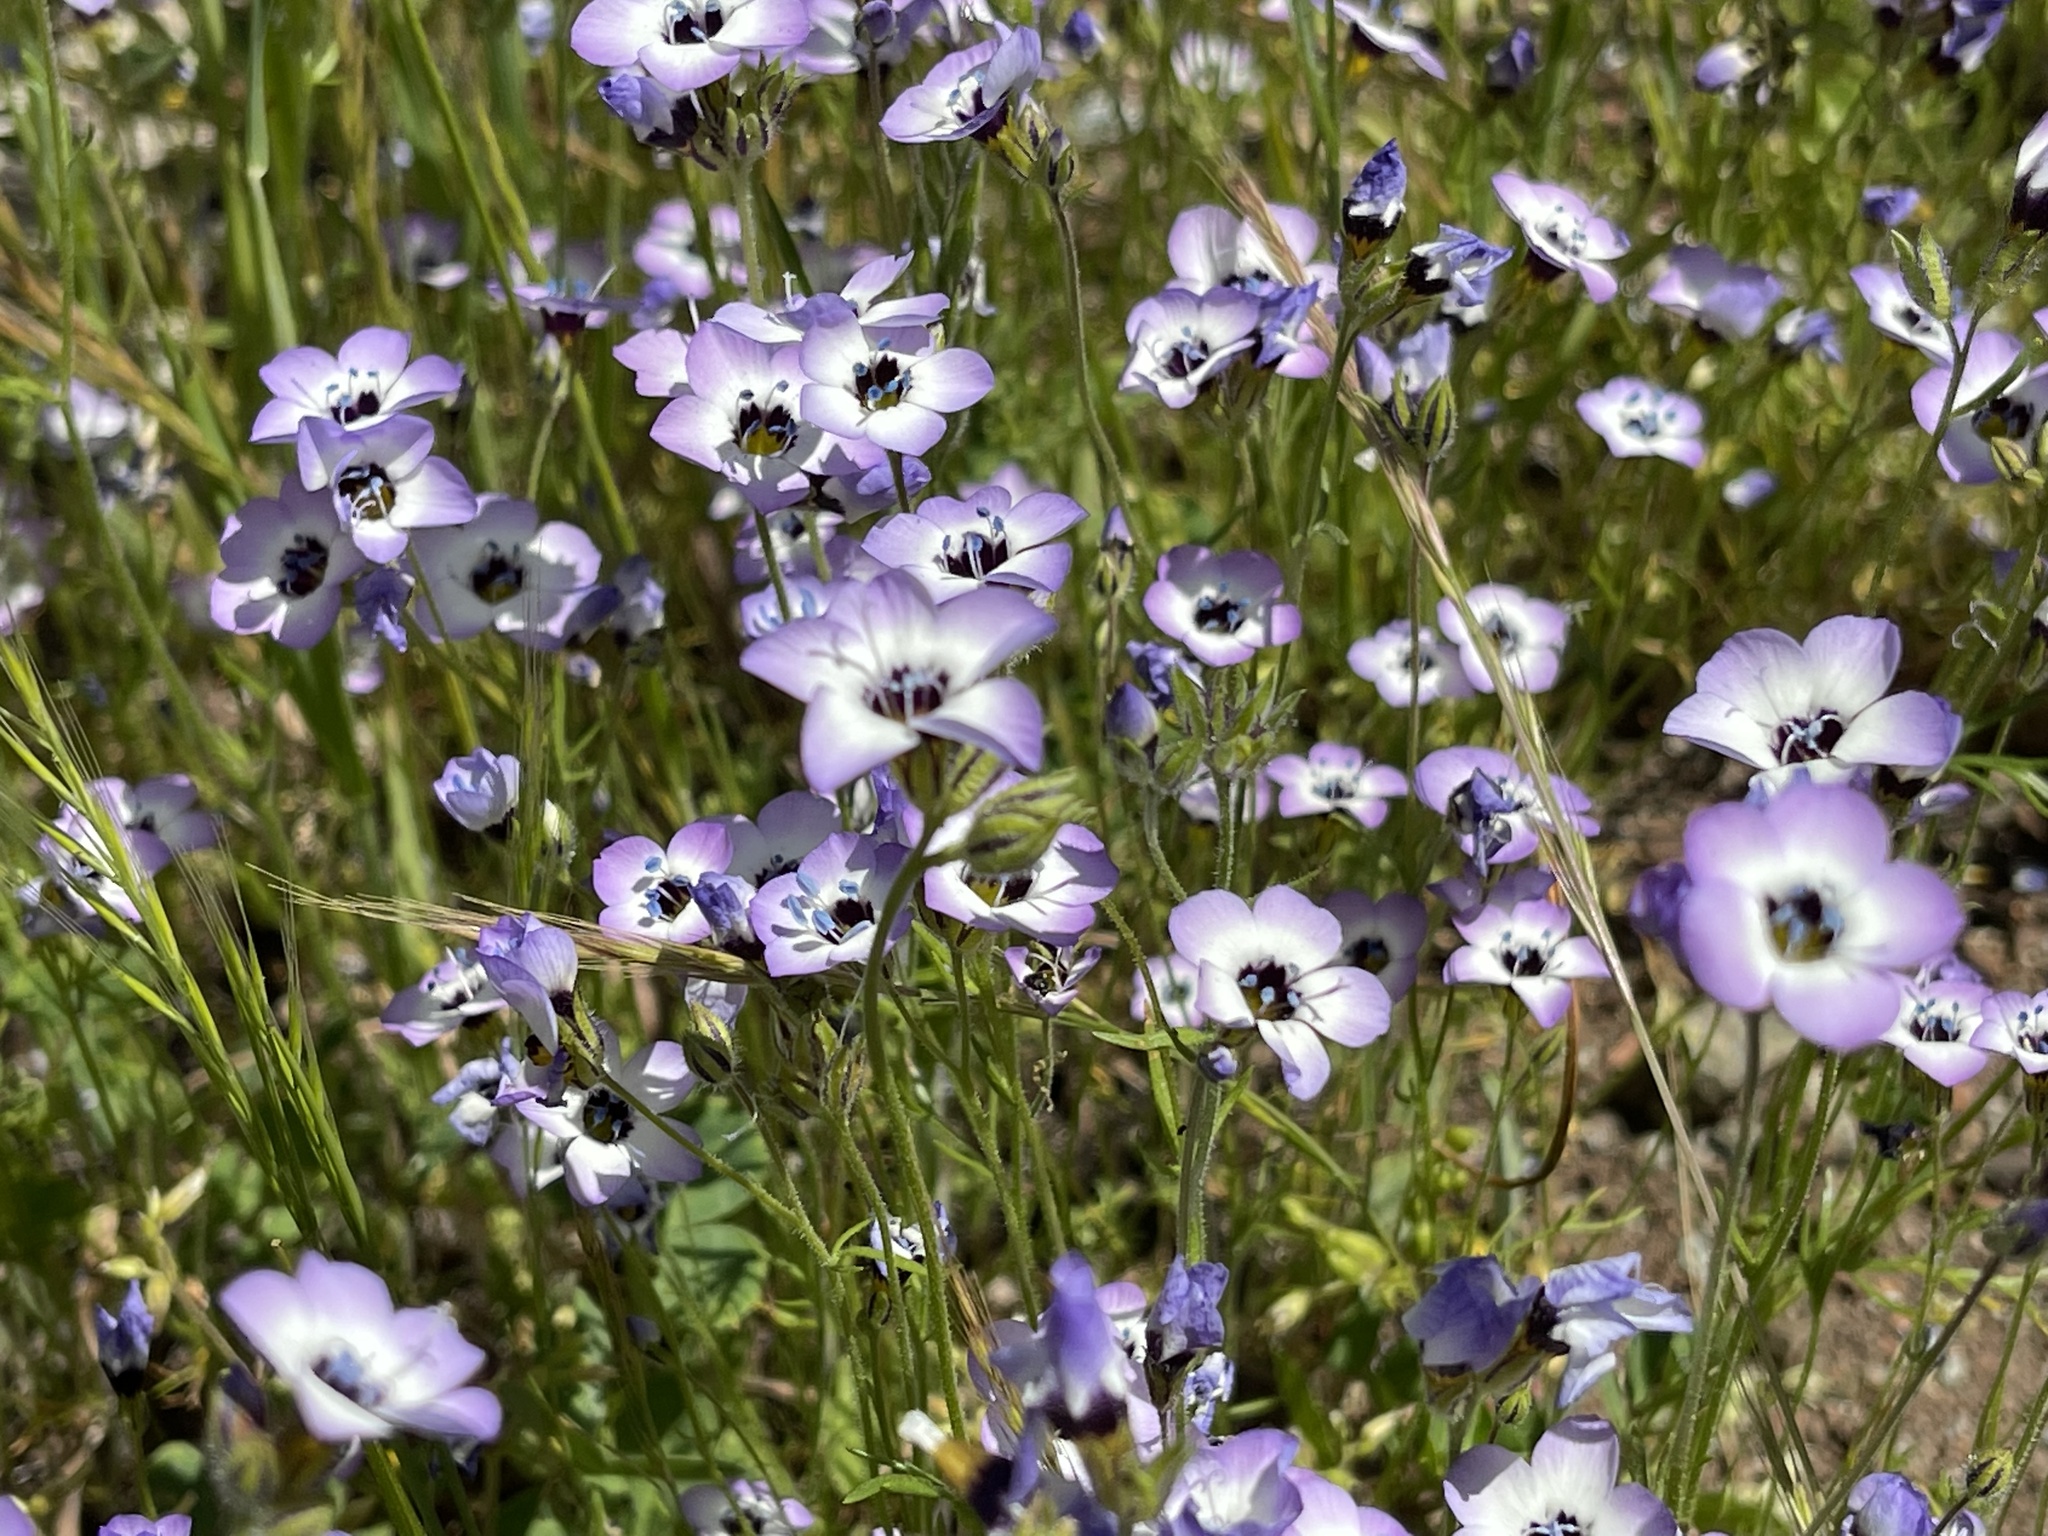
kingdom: Plantae
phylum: Tracheophyta
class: Magnoliopsida
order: Ericales
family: Polemoniaceae
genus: Gilia
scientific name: Gilia tricolor
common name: Bird's-eyes
